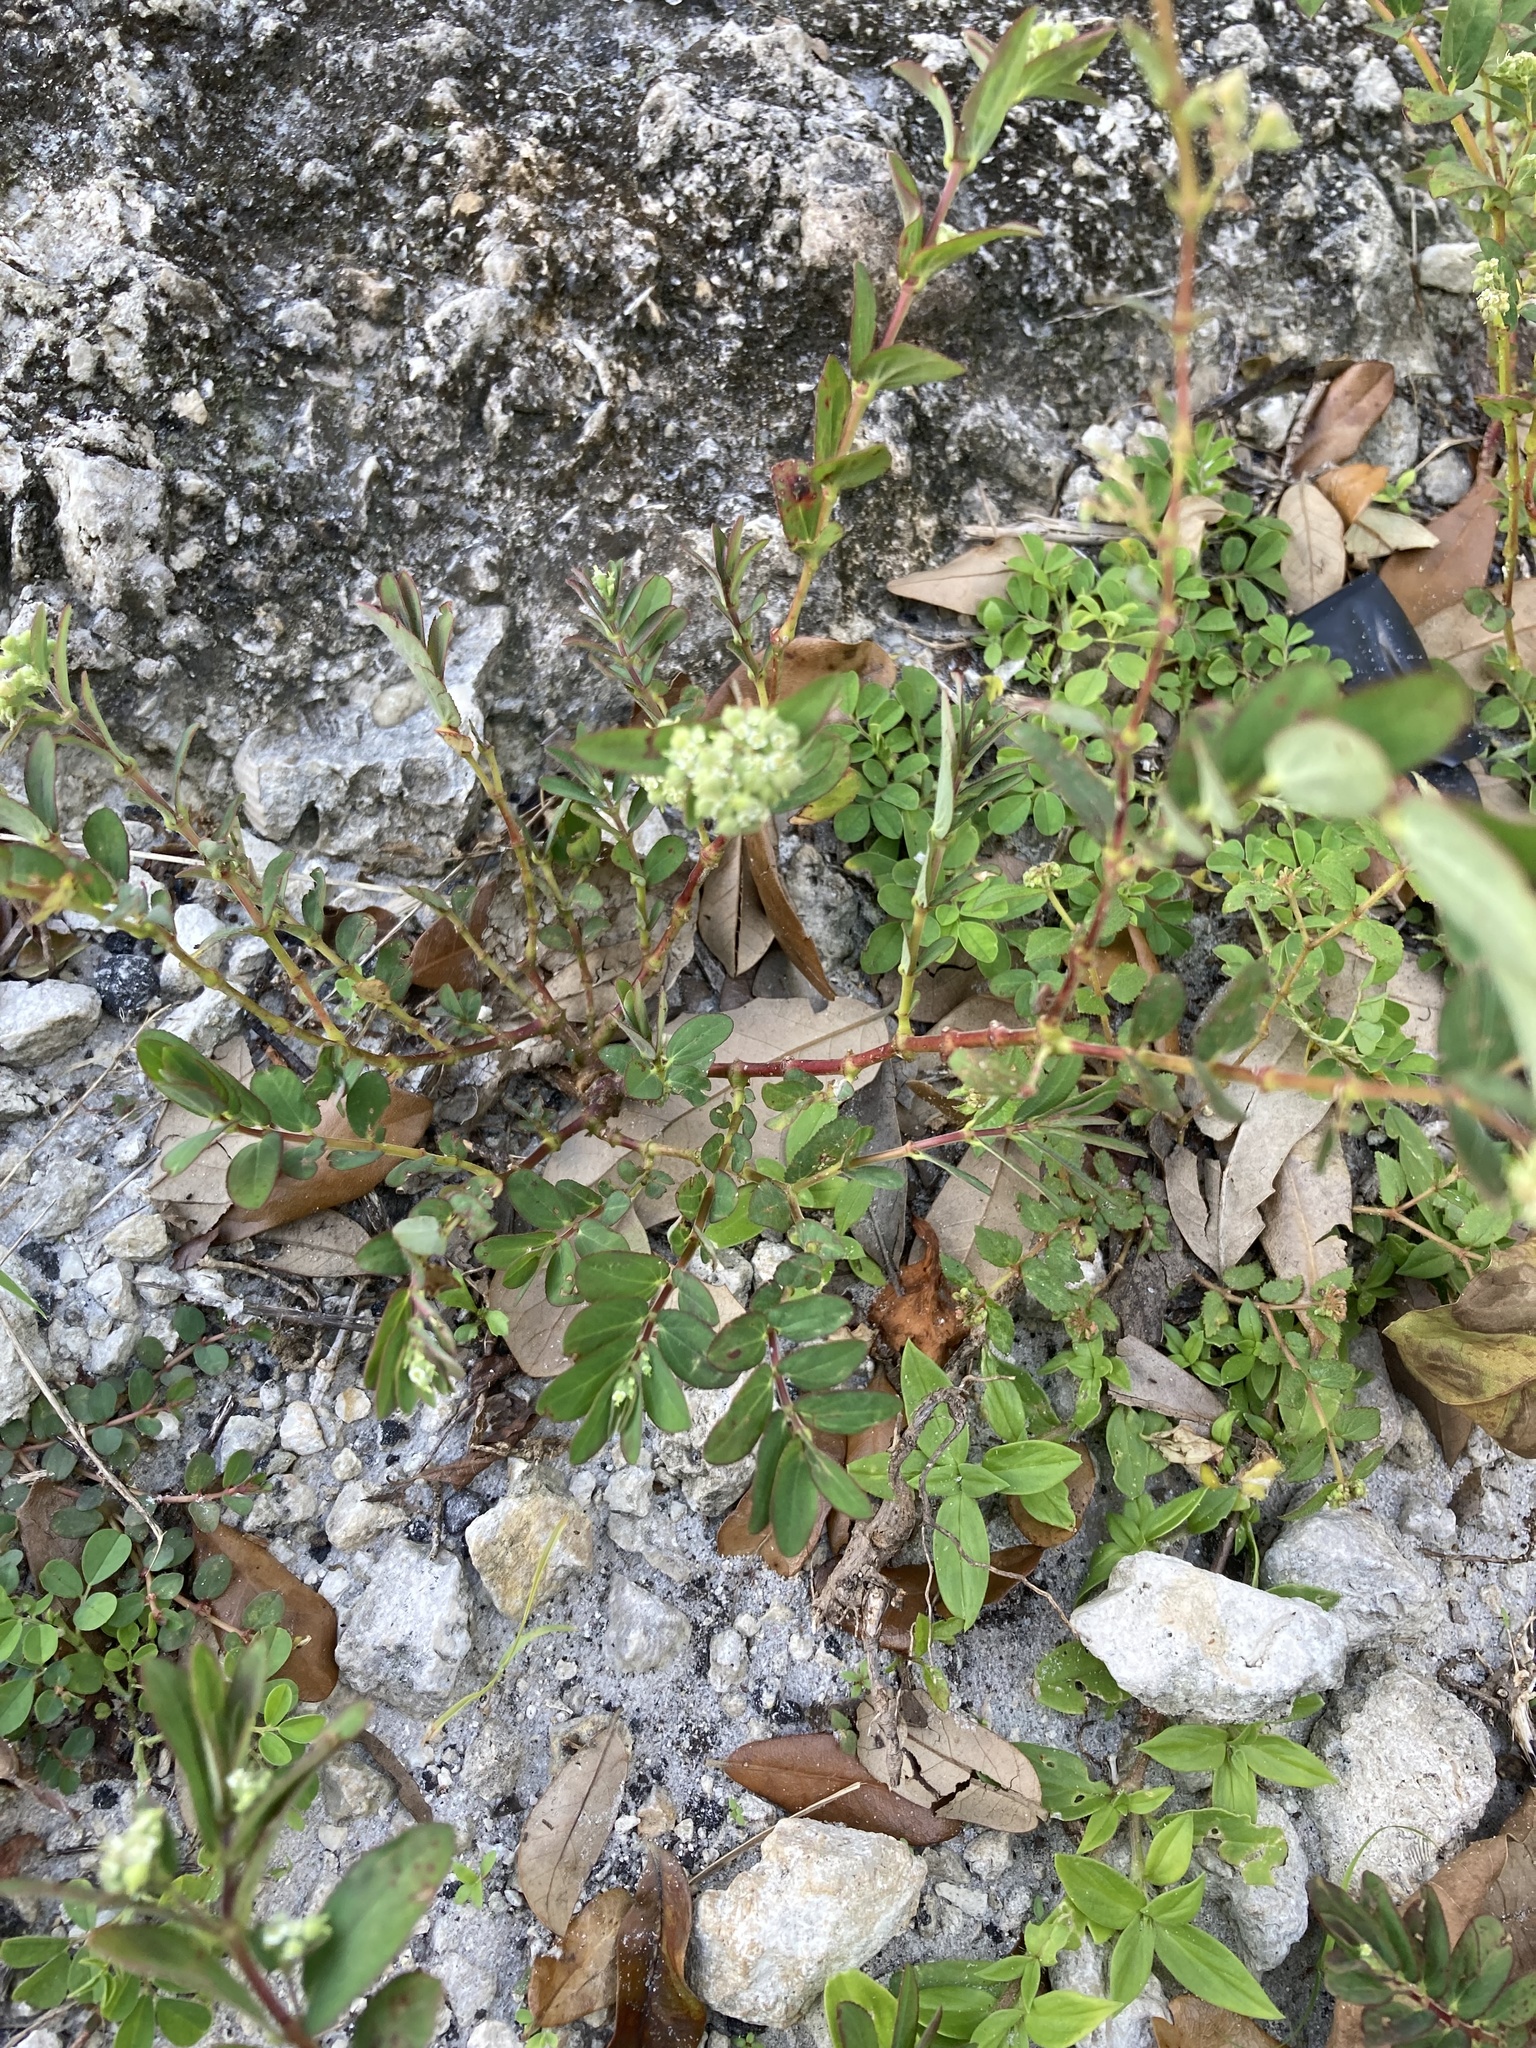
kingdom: Plantae
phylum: Tracheophyta
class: Magnoliopsida
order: Malpighiales
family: Euphorbiaceae
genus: Euphorbia
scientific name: Euphorbia lasiocarpa
